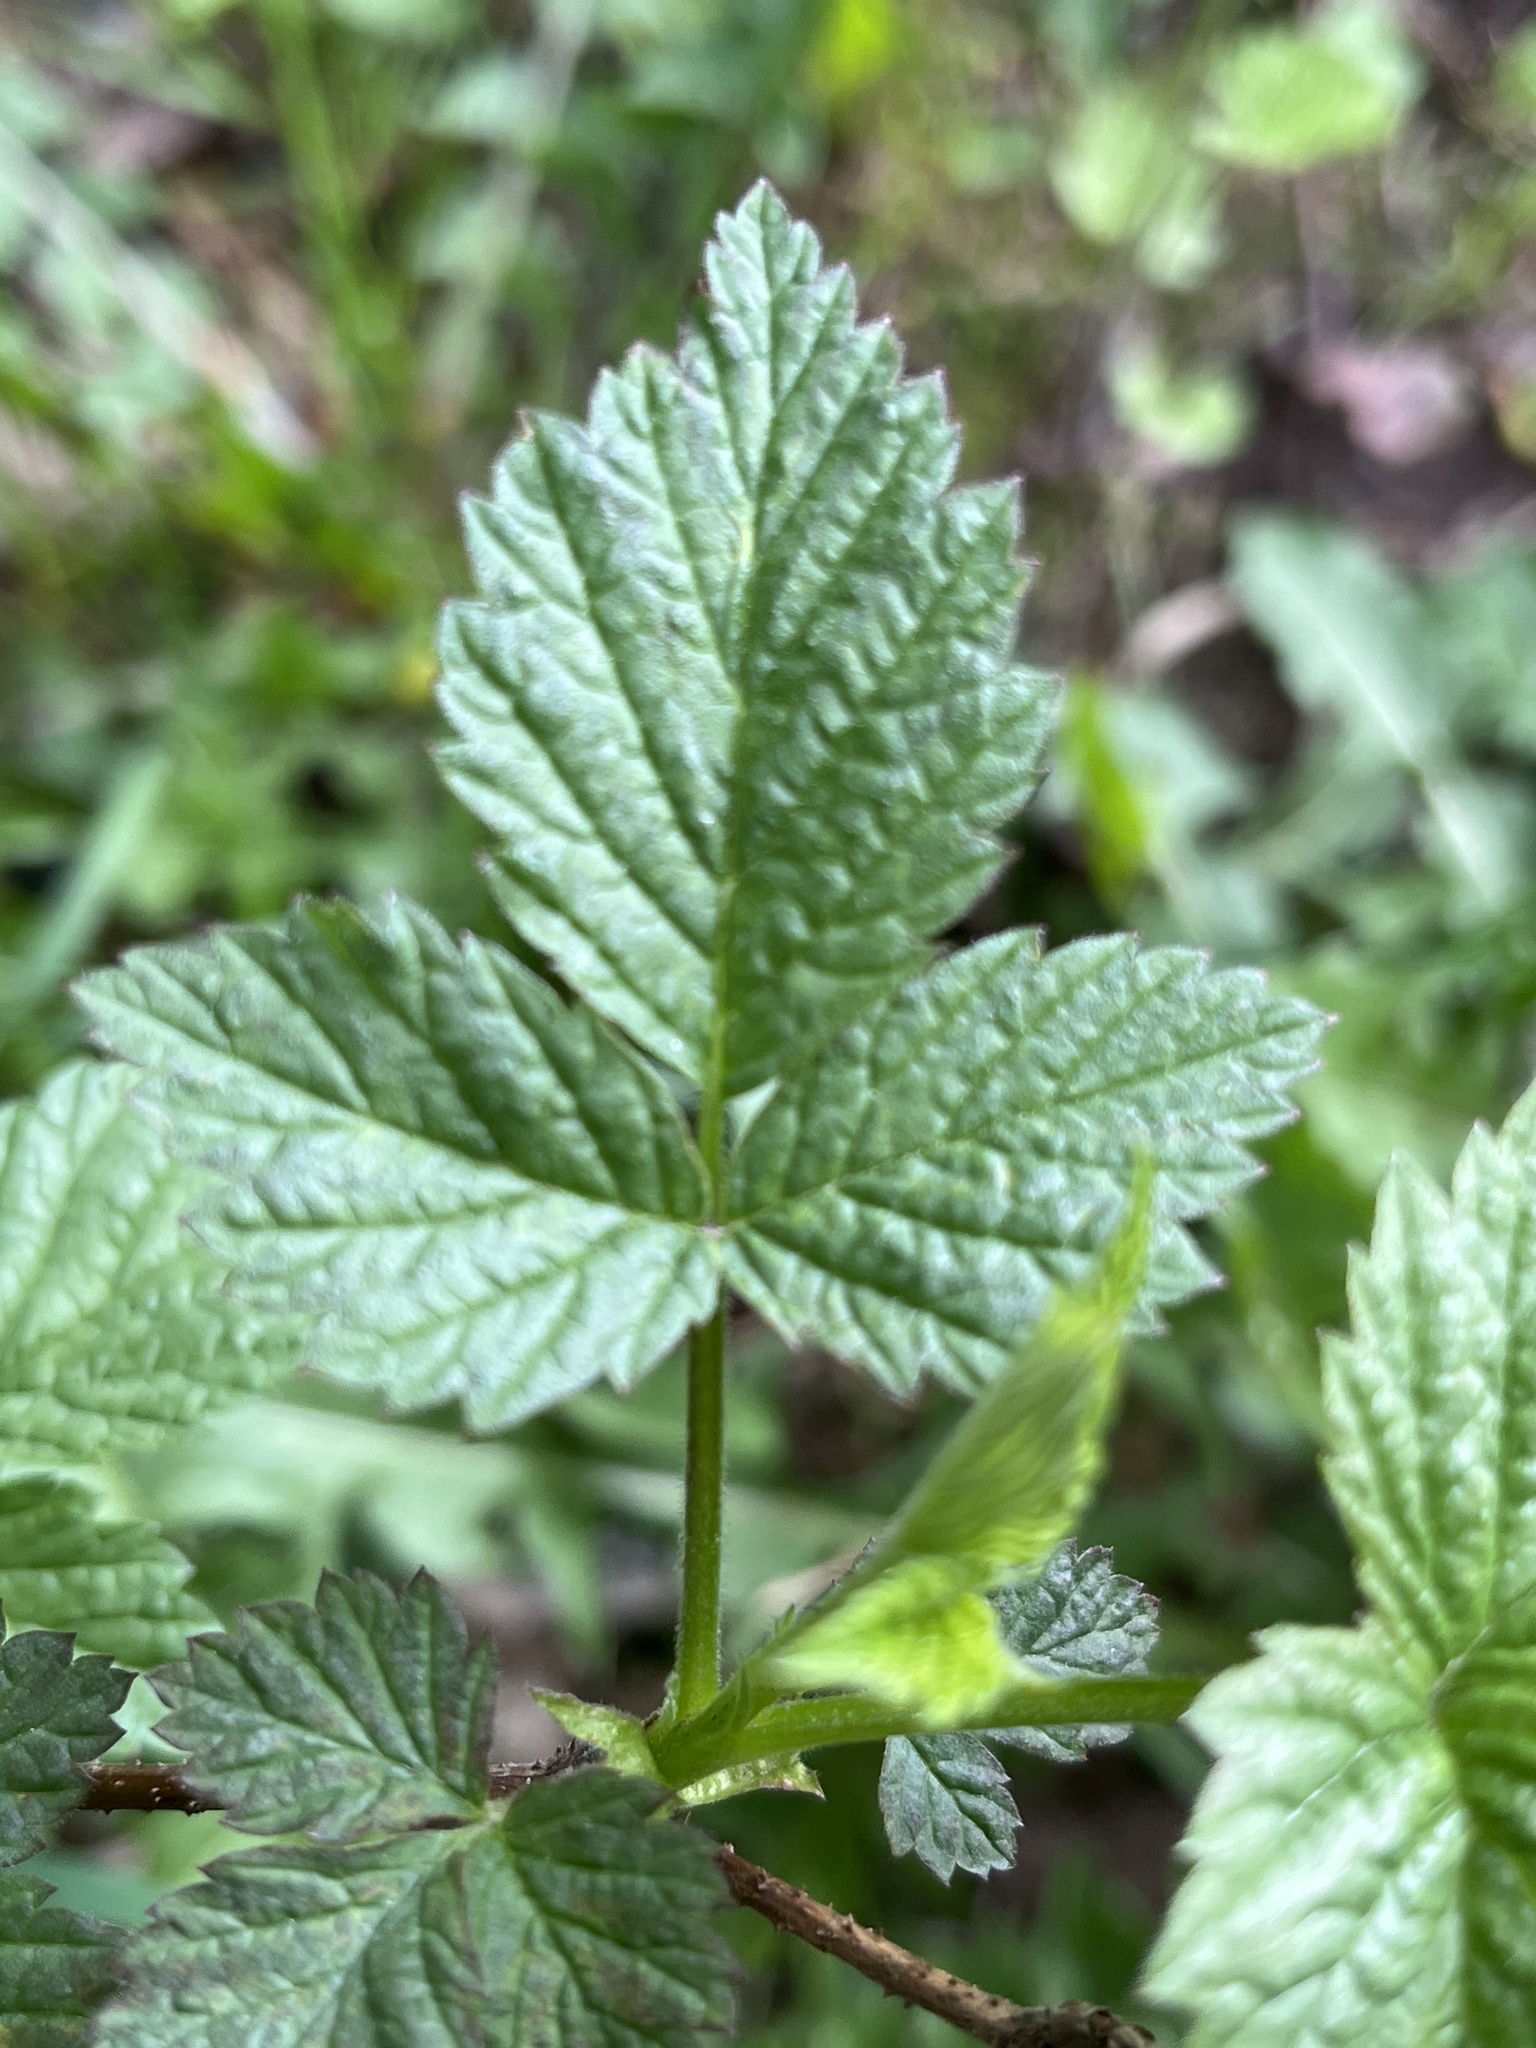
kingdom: Plantae
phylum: Tracheophyta
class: Magnoliopsida
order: Rosales
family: Rosaceae
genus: Rubus
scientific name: Rubus idaeus
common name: Raspberry
